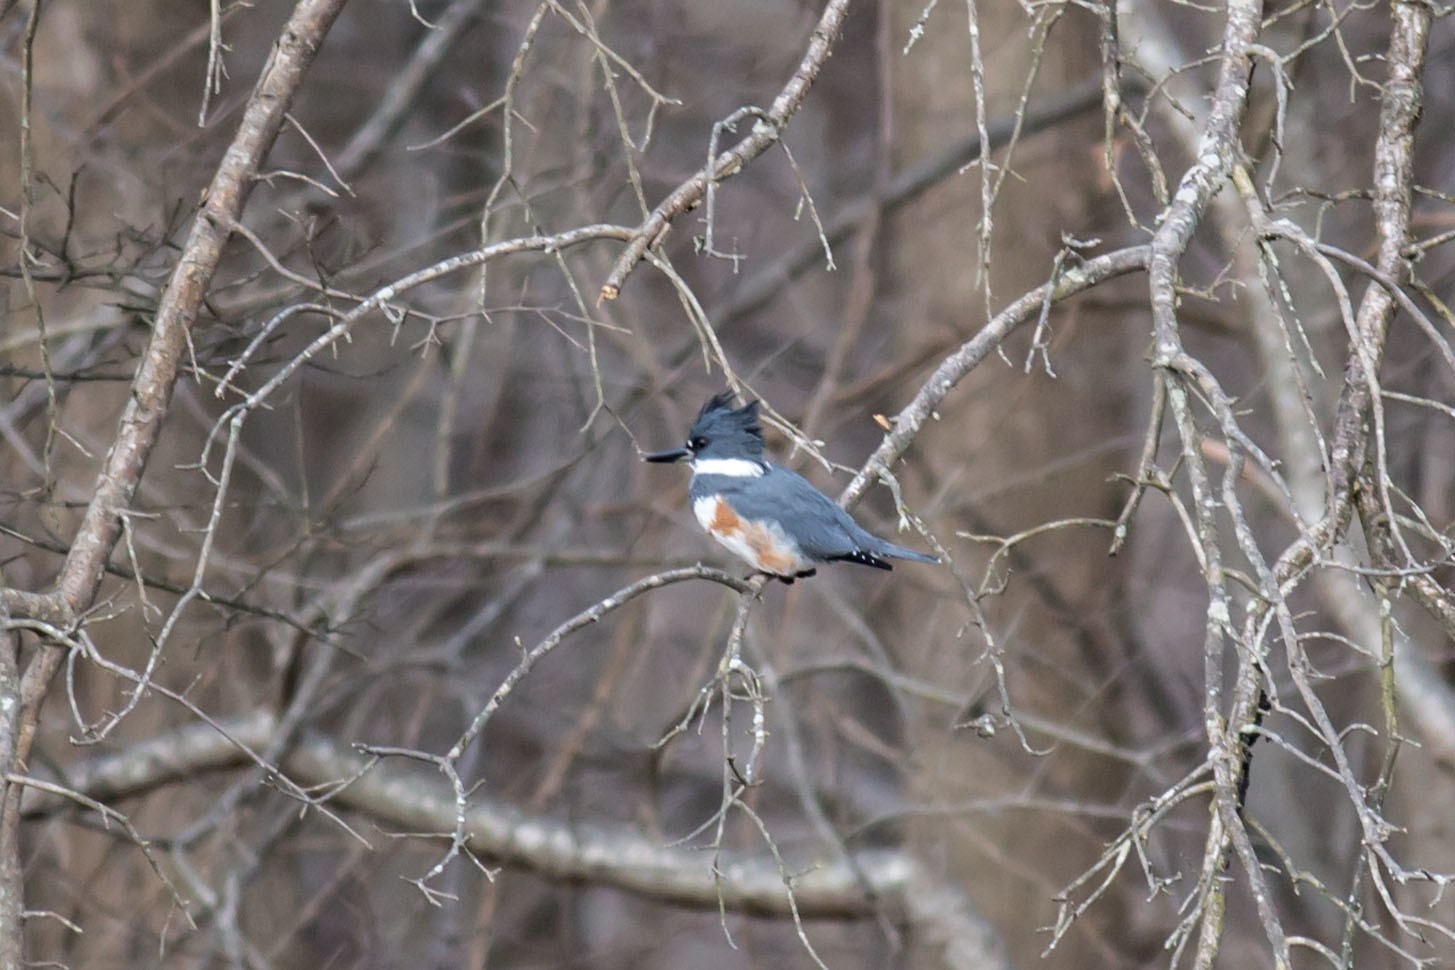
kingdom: Animalia
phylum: Chordata
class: Aves
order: Coraciiformes
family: Alcedinidae
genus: Megaceryle
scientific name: Megaceryle alcyon
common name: Belted kingfisher
